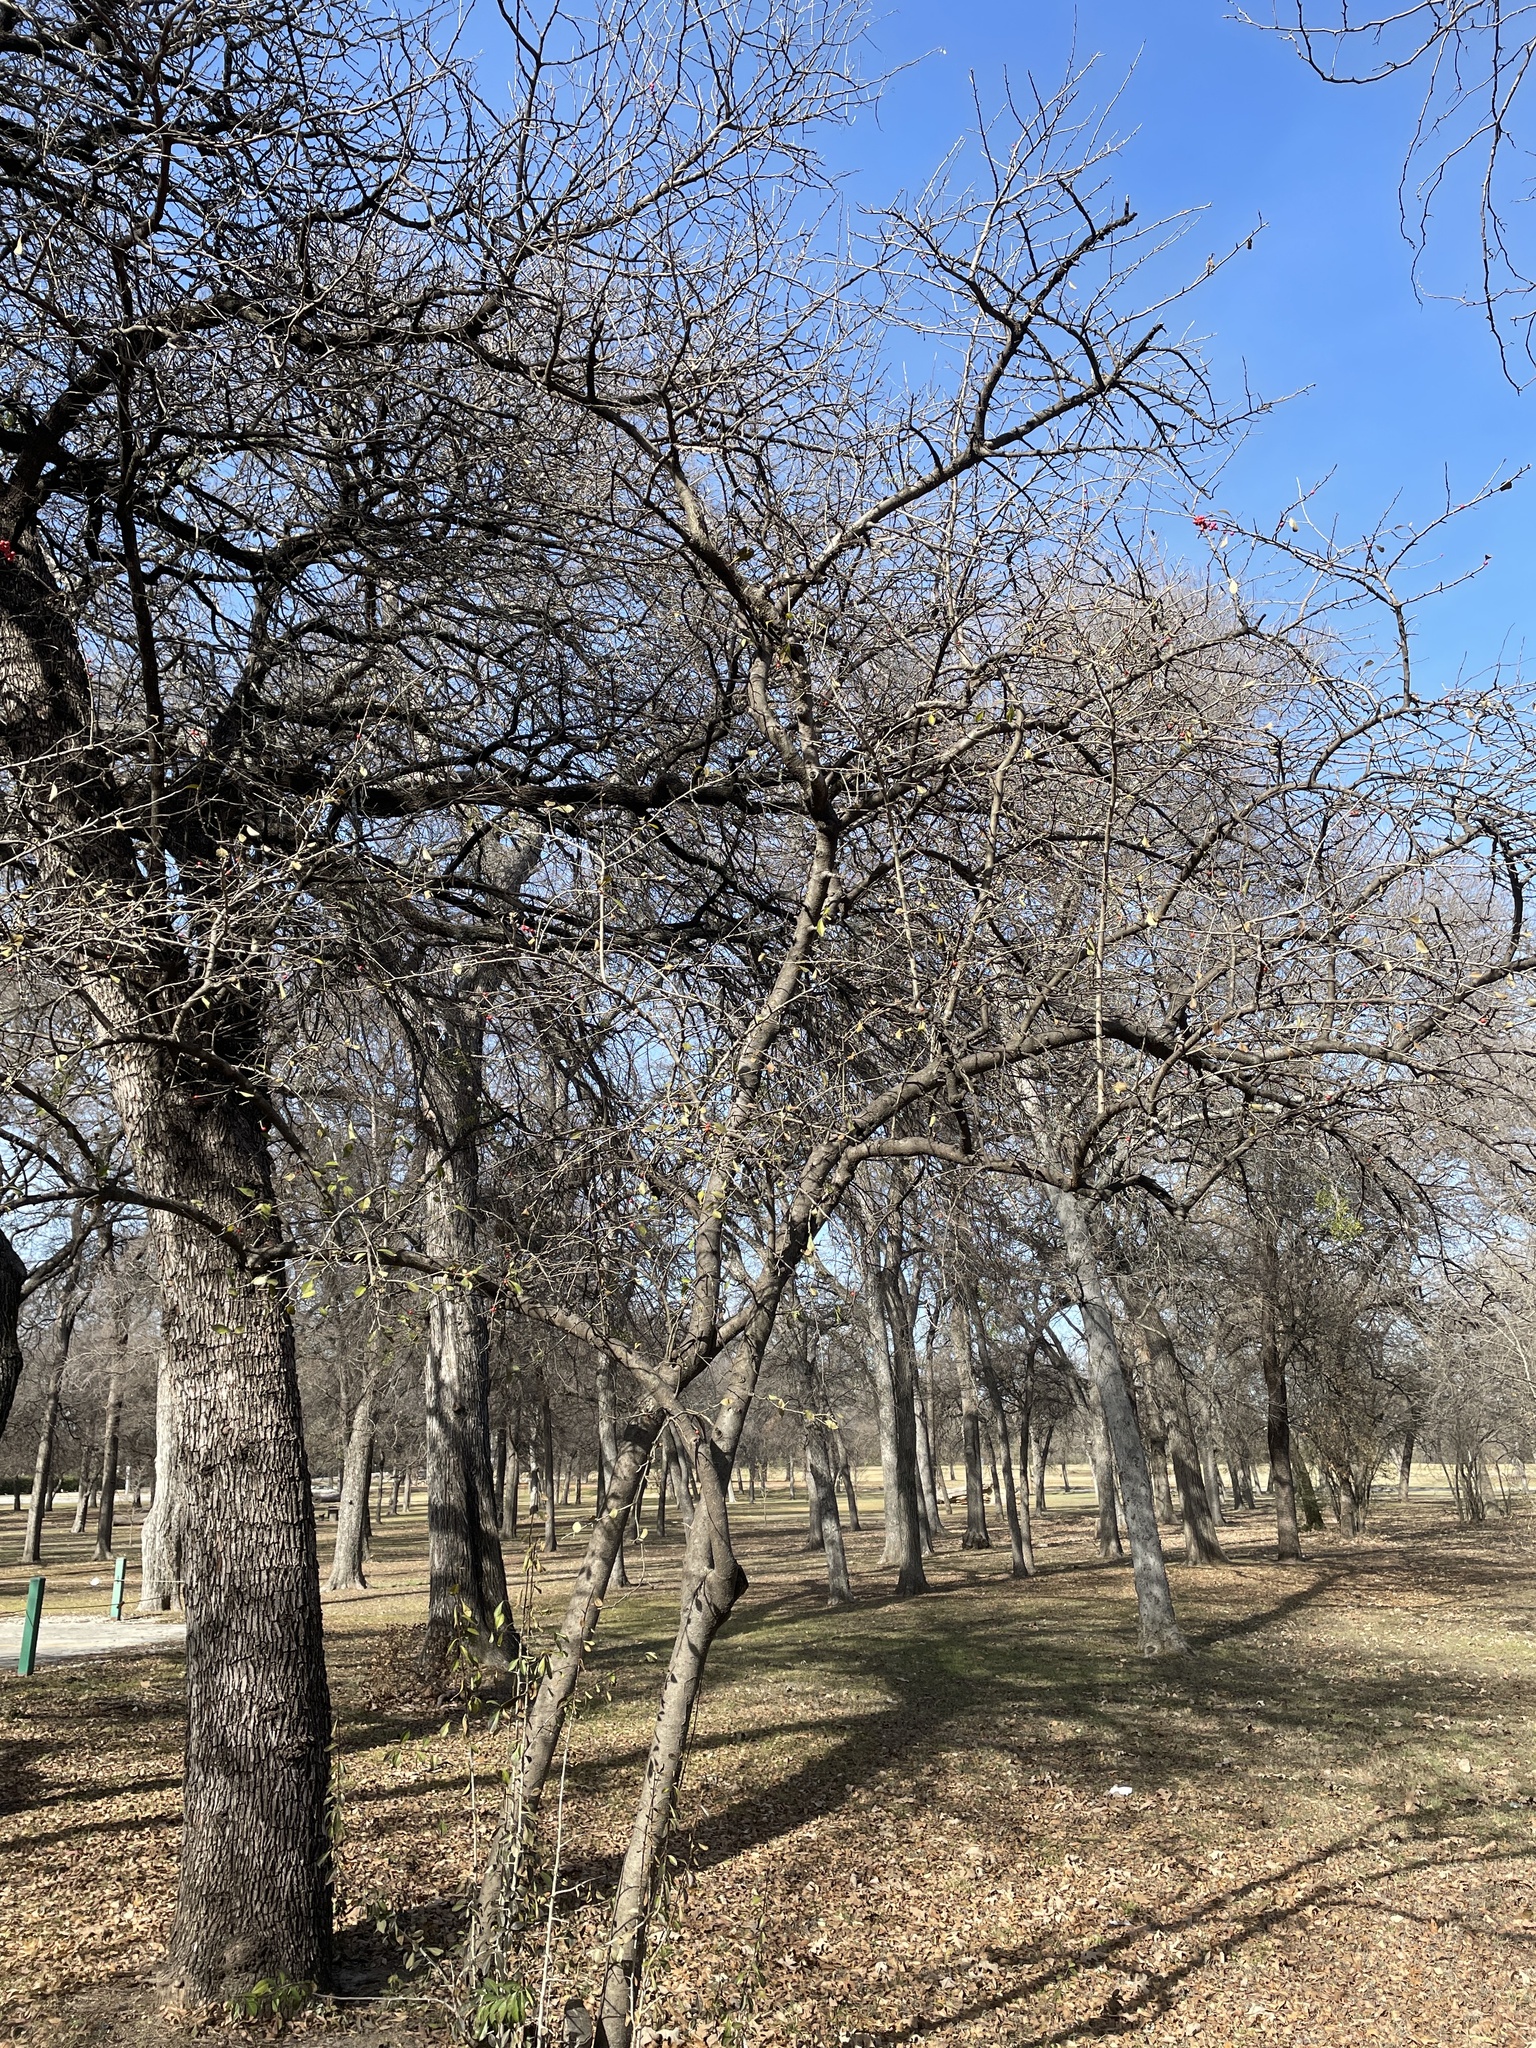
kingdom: Plantae
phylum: Tracheophyta
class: Magnoliopsida
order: Aquifoliales
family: Aquifoliaceae
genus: Ilex
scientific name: Ilex decidua
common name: Possum-haw
